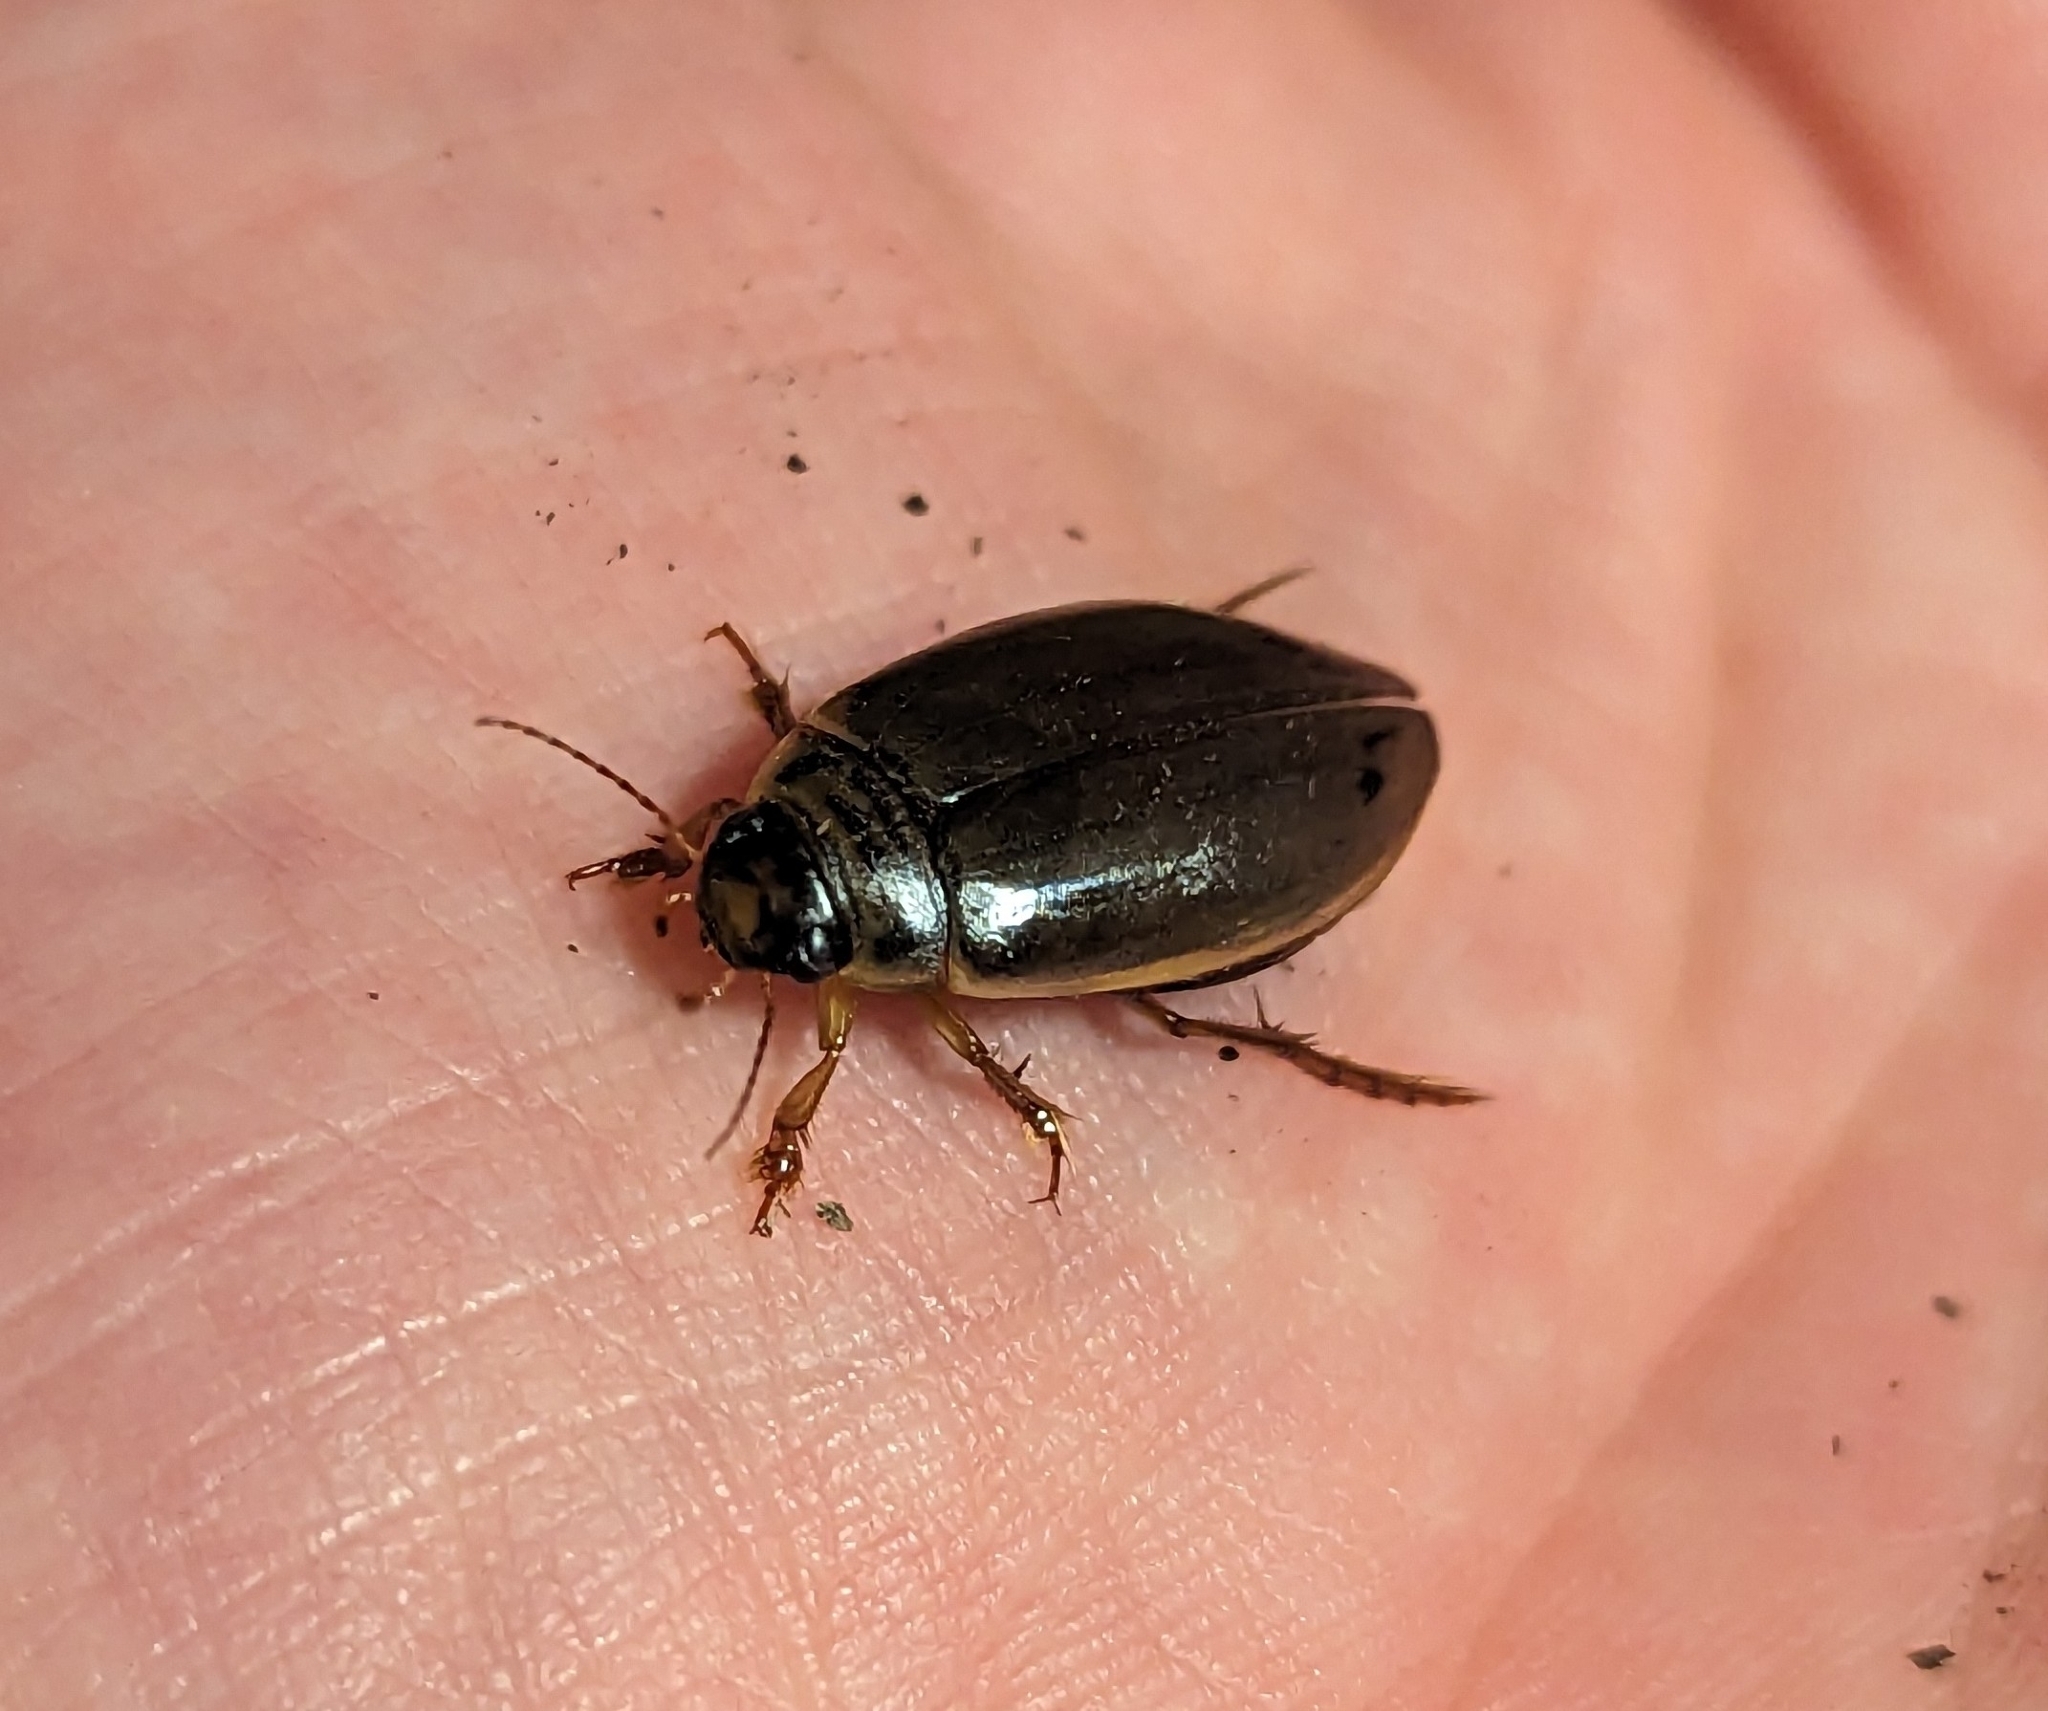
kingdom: Animalia
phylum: Arthropoda
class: Insecta
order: Coleoptera
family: Dytiscidae
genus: Colymbetes
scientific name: Colymbetes
